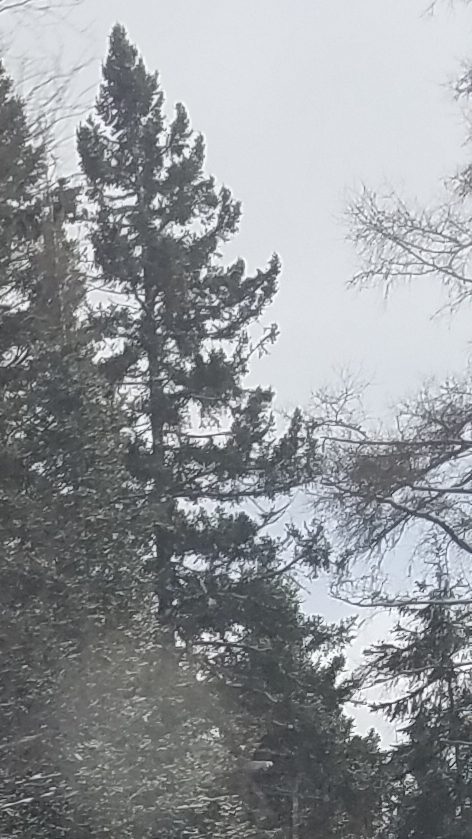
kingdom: Plantae
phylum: Tracheophyta
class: Pinopsida
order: Pinales
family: Pinaceae
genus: Pinus
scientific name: Pinus strobus
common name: Weymouth pine
